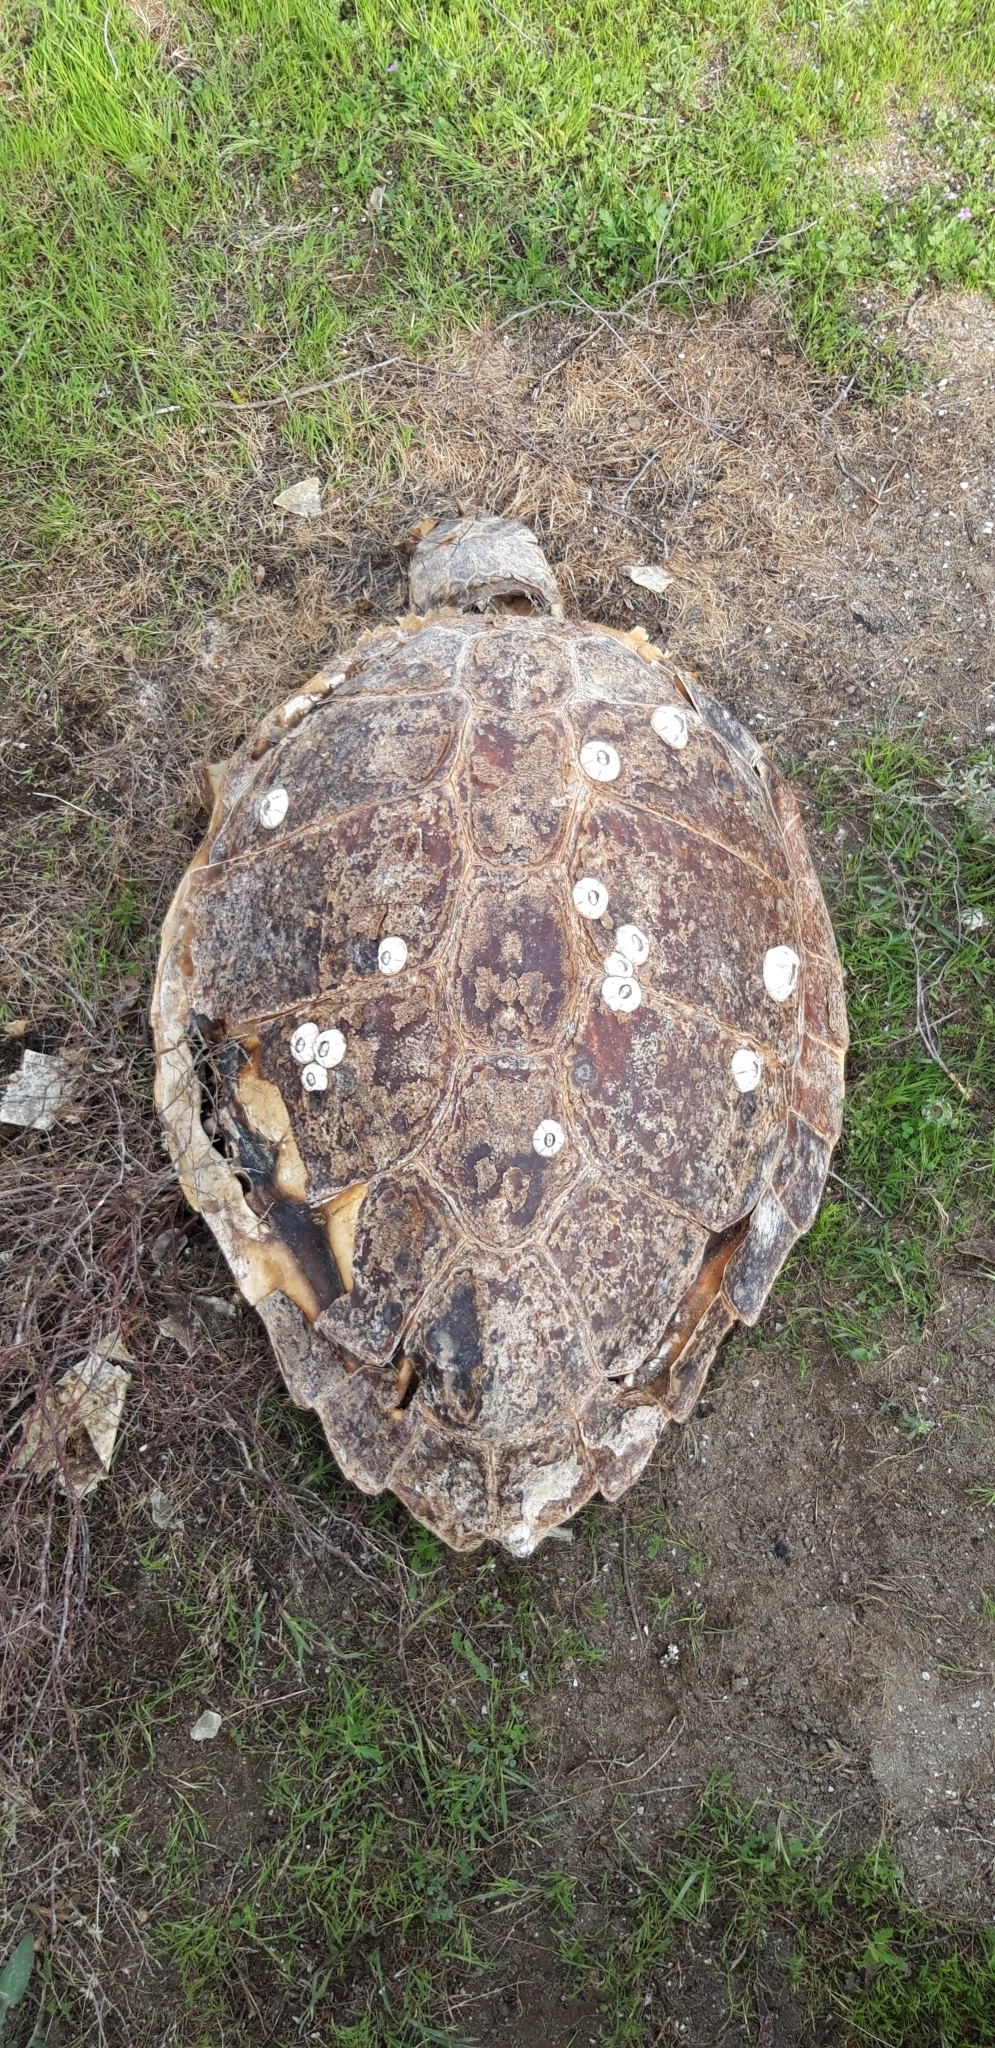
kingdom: Animalia
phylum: Chordata
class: Testudines
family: Cheloniidae
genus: Caretta
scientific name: Caretta caretta
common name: Loggerhead sea turtle
